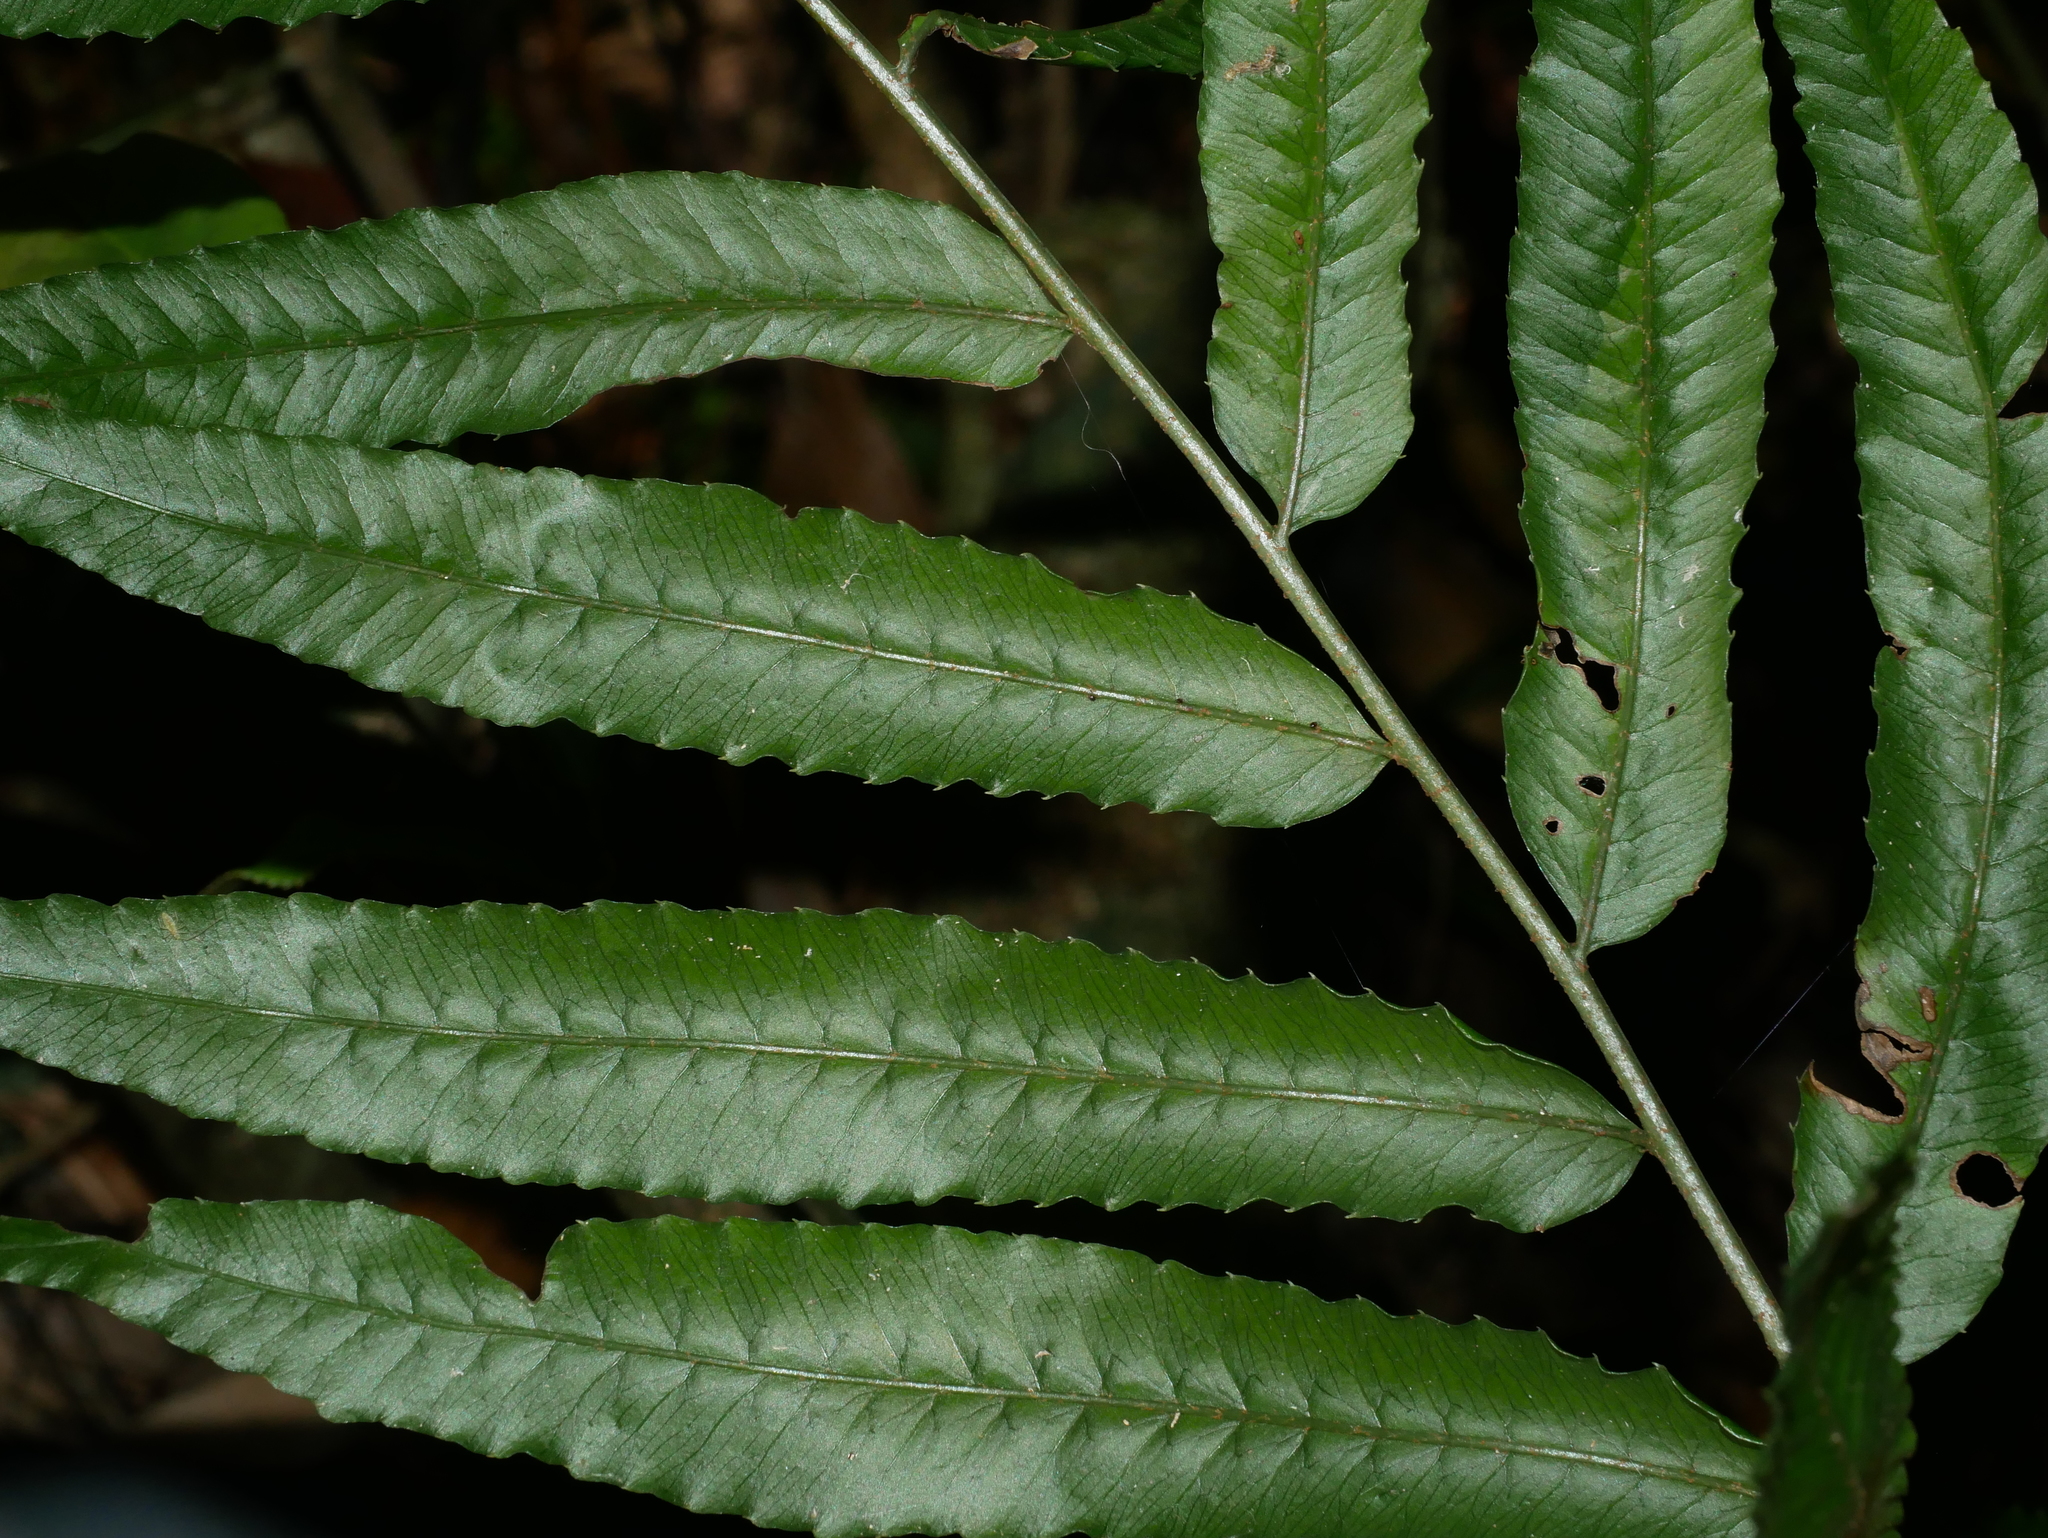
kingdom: Plantae
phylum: Tracheophyta
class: Polypodiopsida
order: Polypodiales
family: Dryopteridaceae
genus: Bolbitis
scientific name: Bolbitis angustipinna
